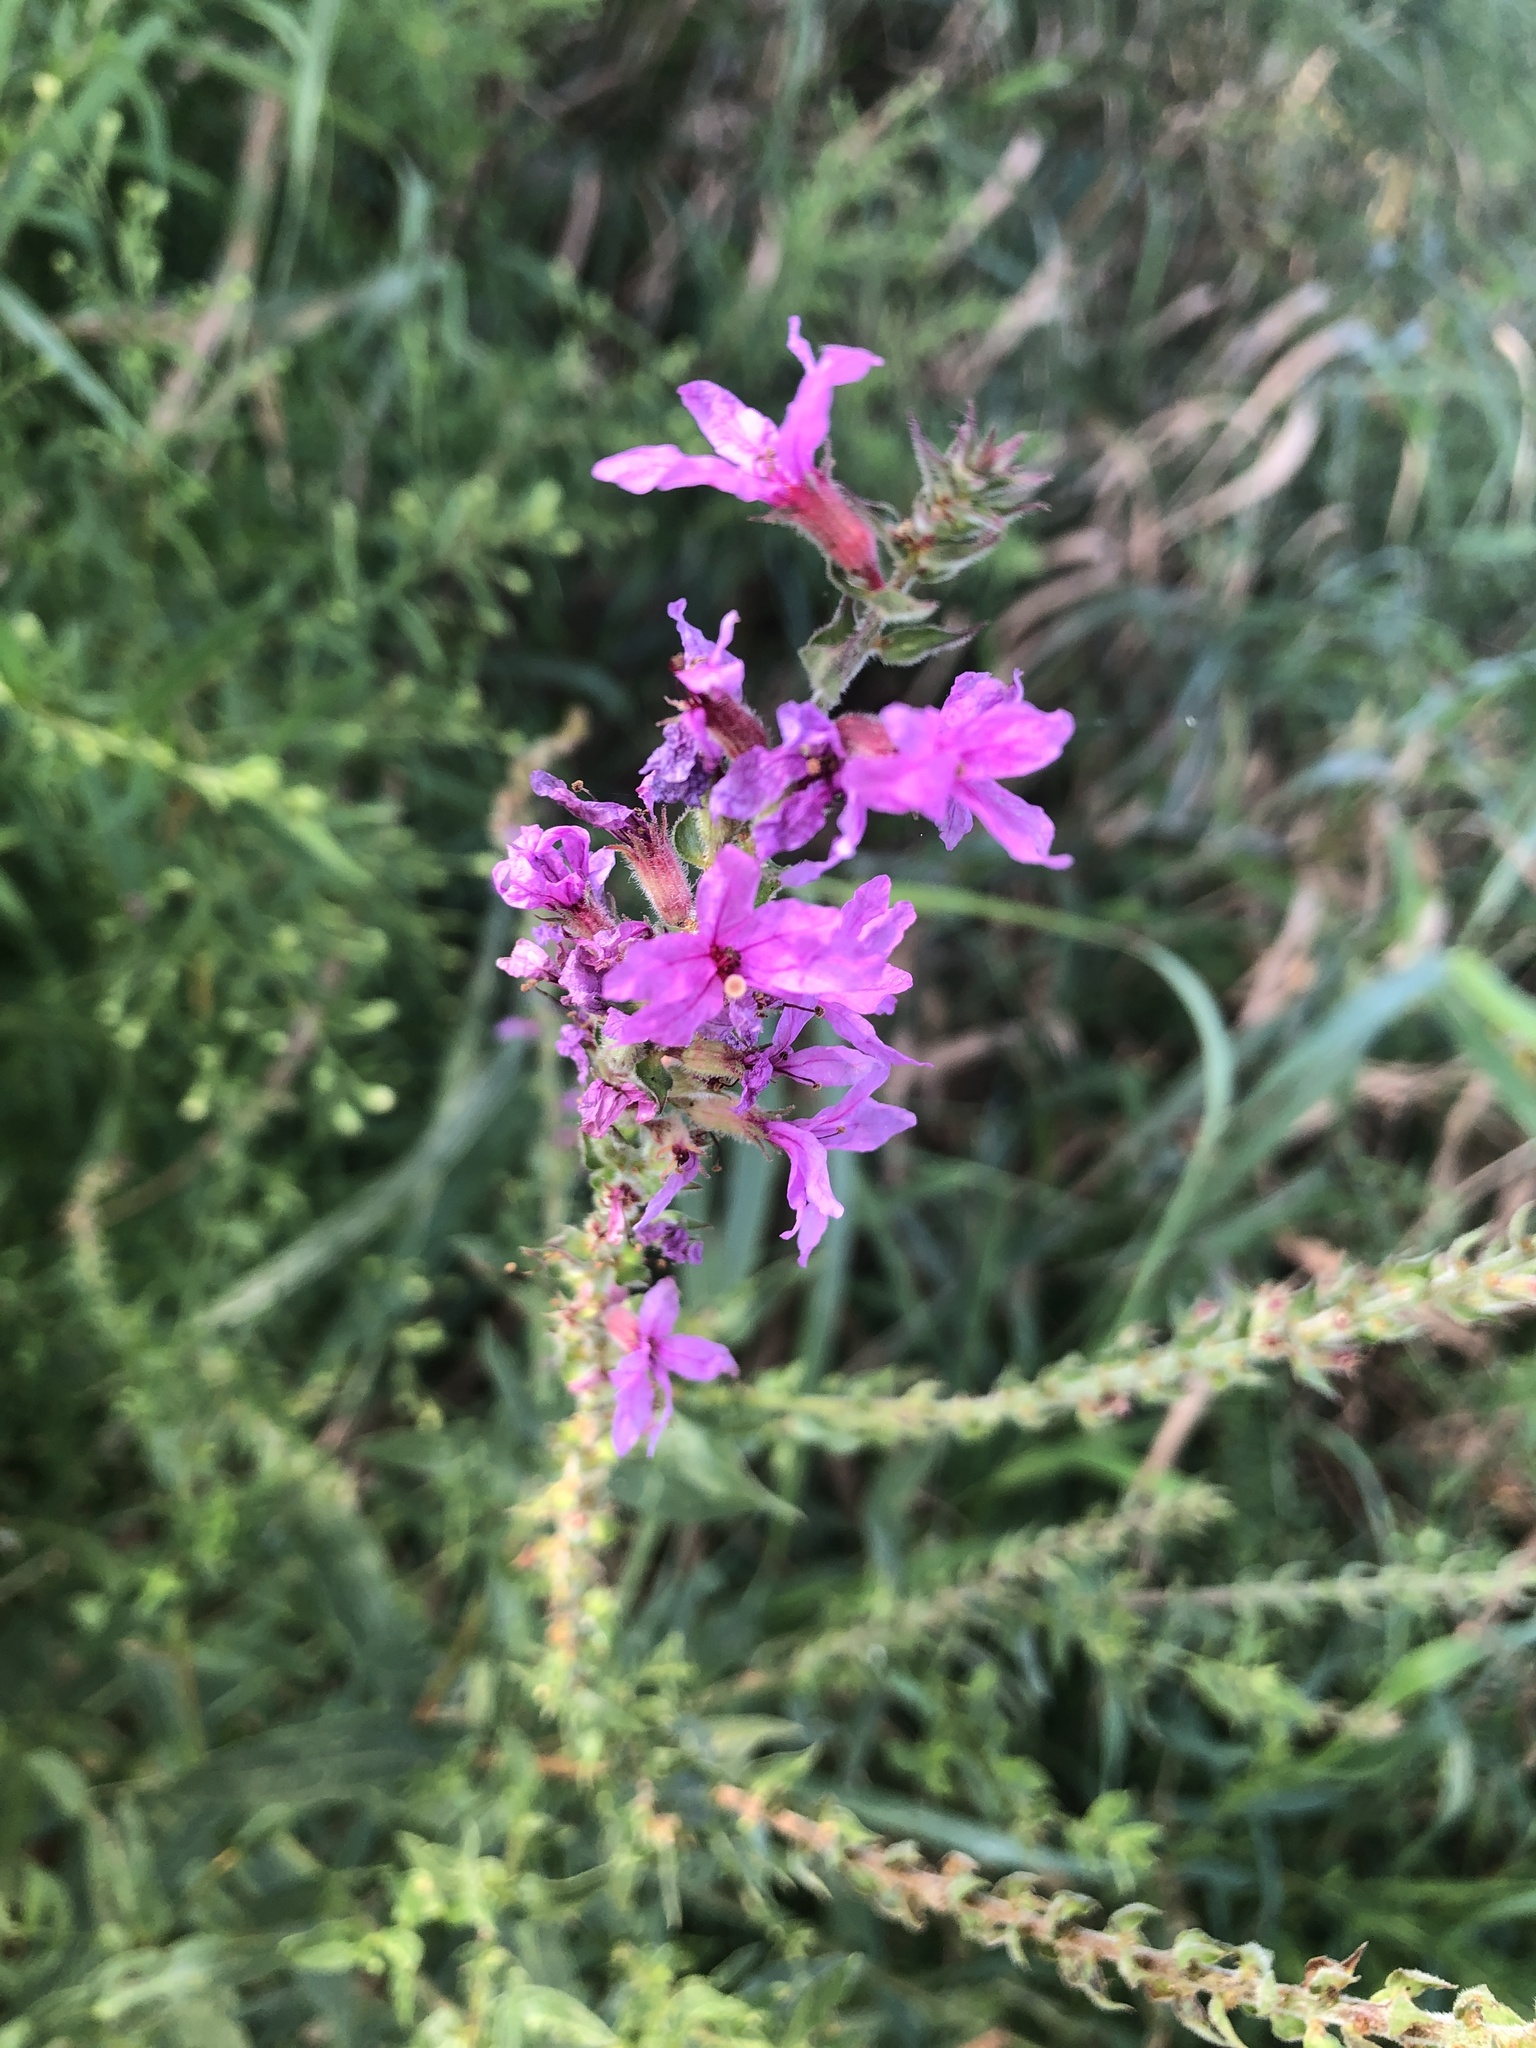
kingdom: Plantae
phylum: Tracheophyta
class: Magnoliopsida
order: Myrtales
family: Lythraceae
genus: Lythrum
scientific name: Lythrum salicaria
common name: Purple loosestrife
